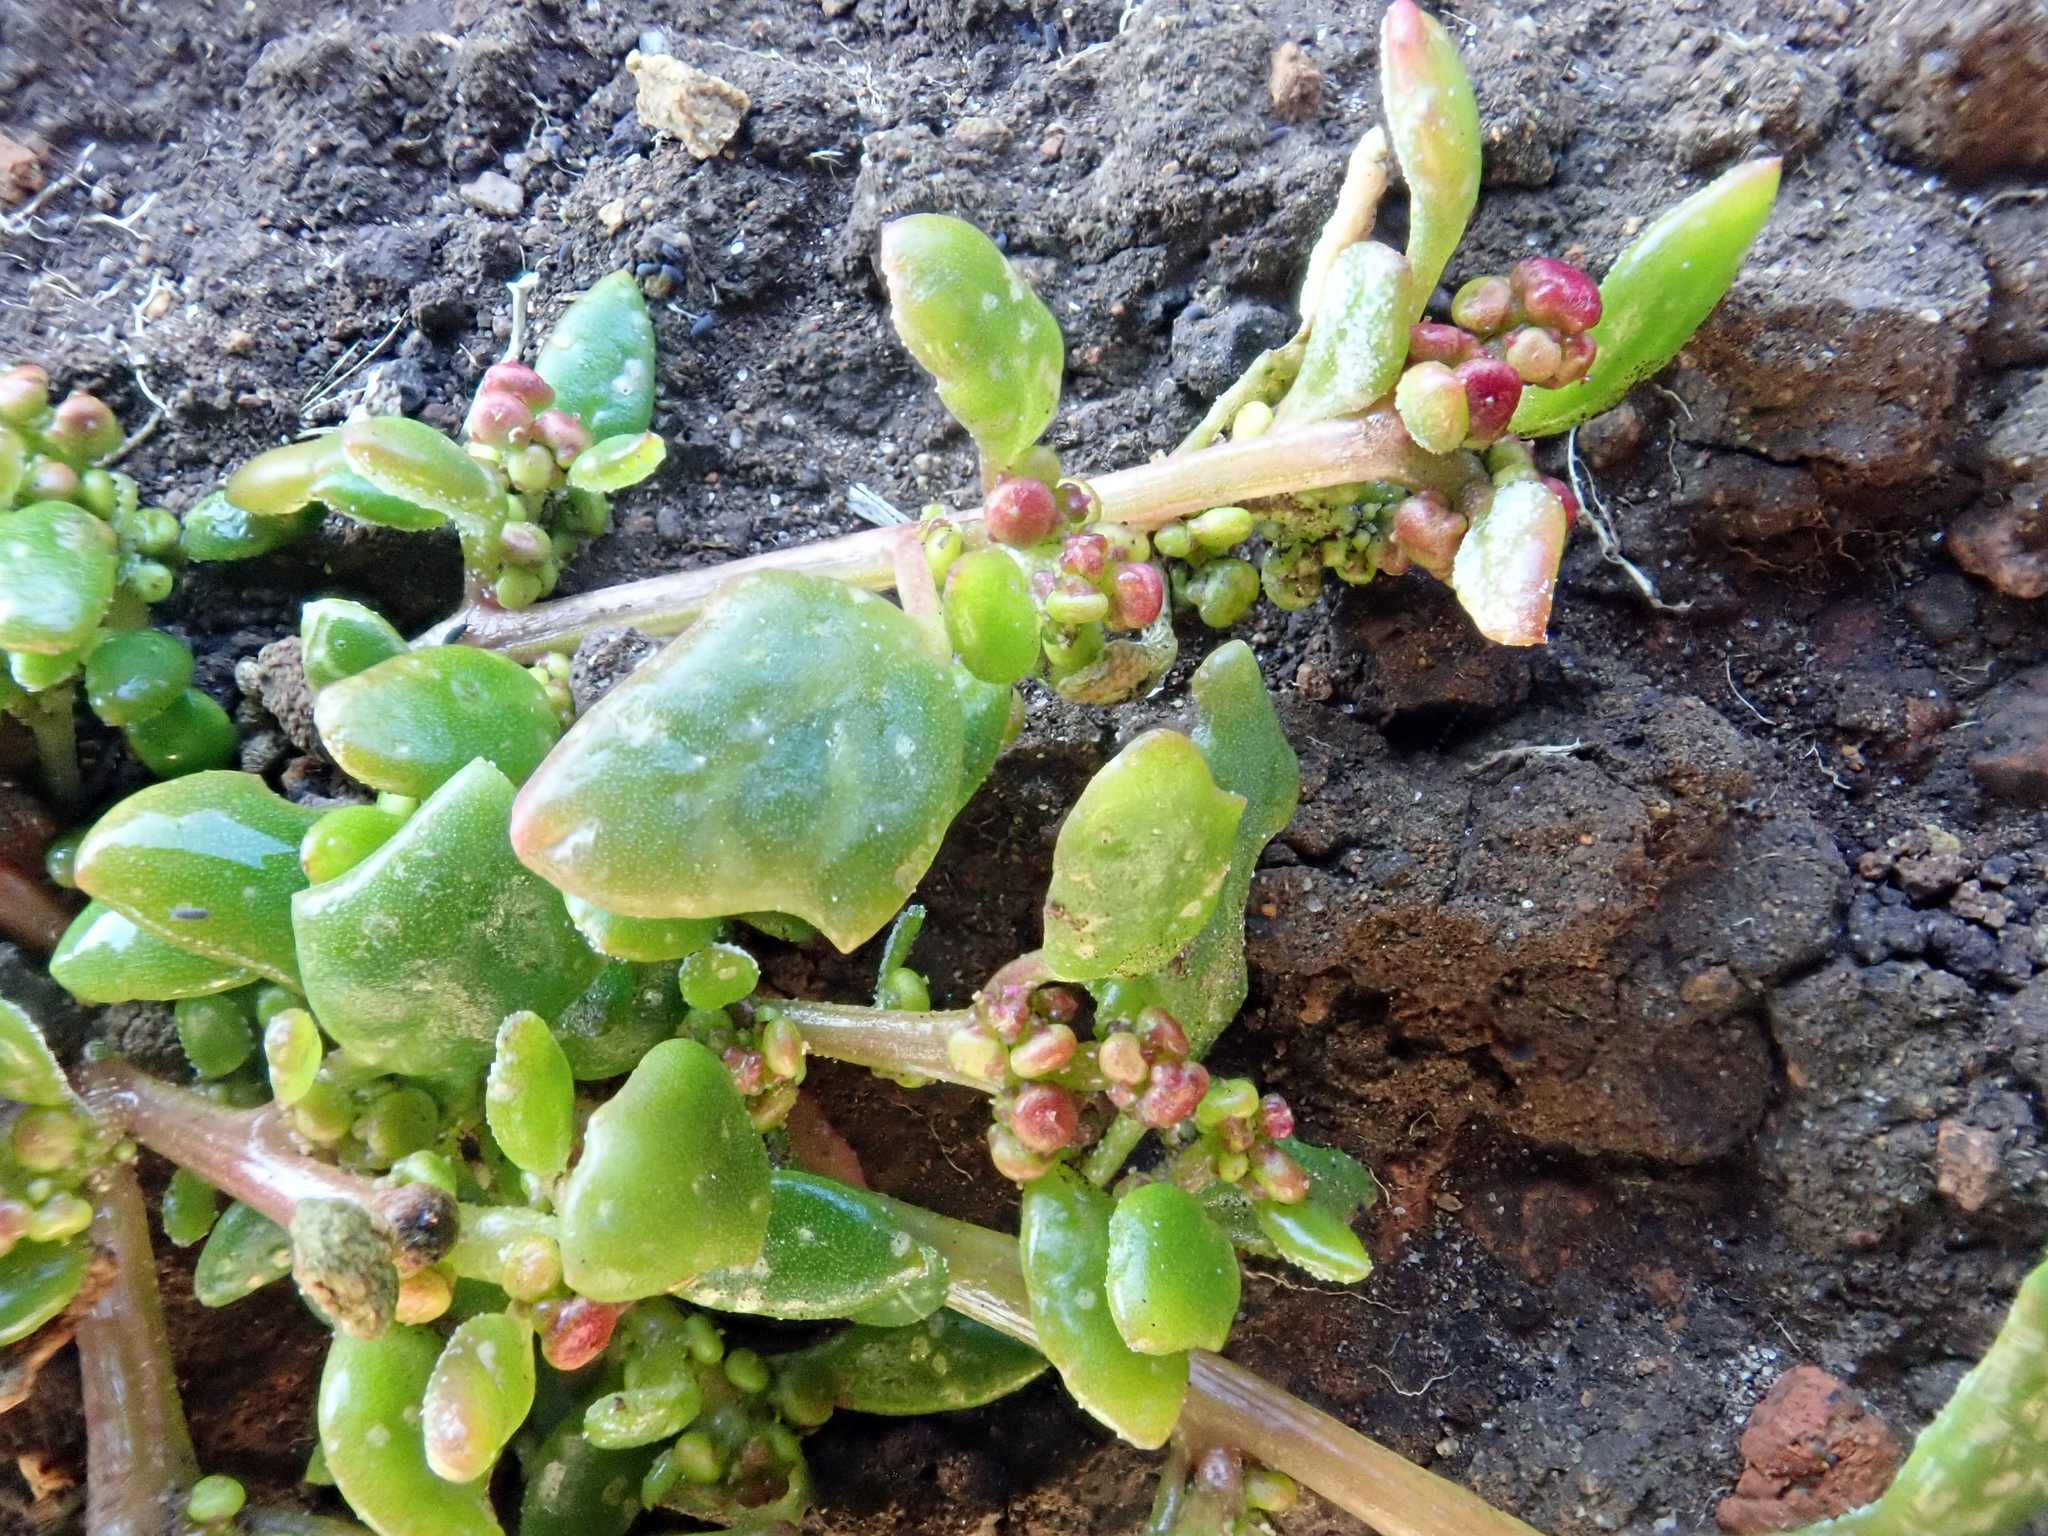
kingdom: Plantae
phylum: Tracheophyta
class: Magnoliopsida
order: Caryophyllales
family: Amaranthaceae
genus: Oxybasis
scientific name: Oxybasis ambigua
